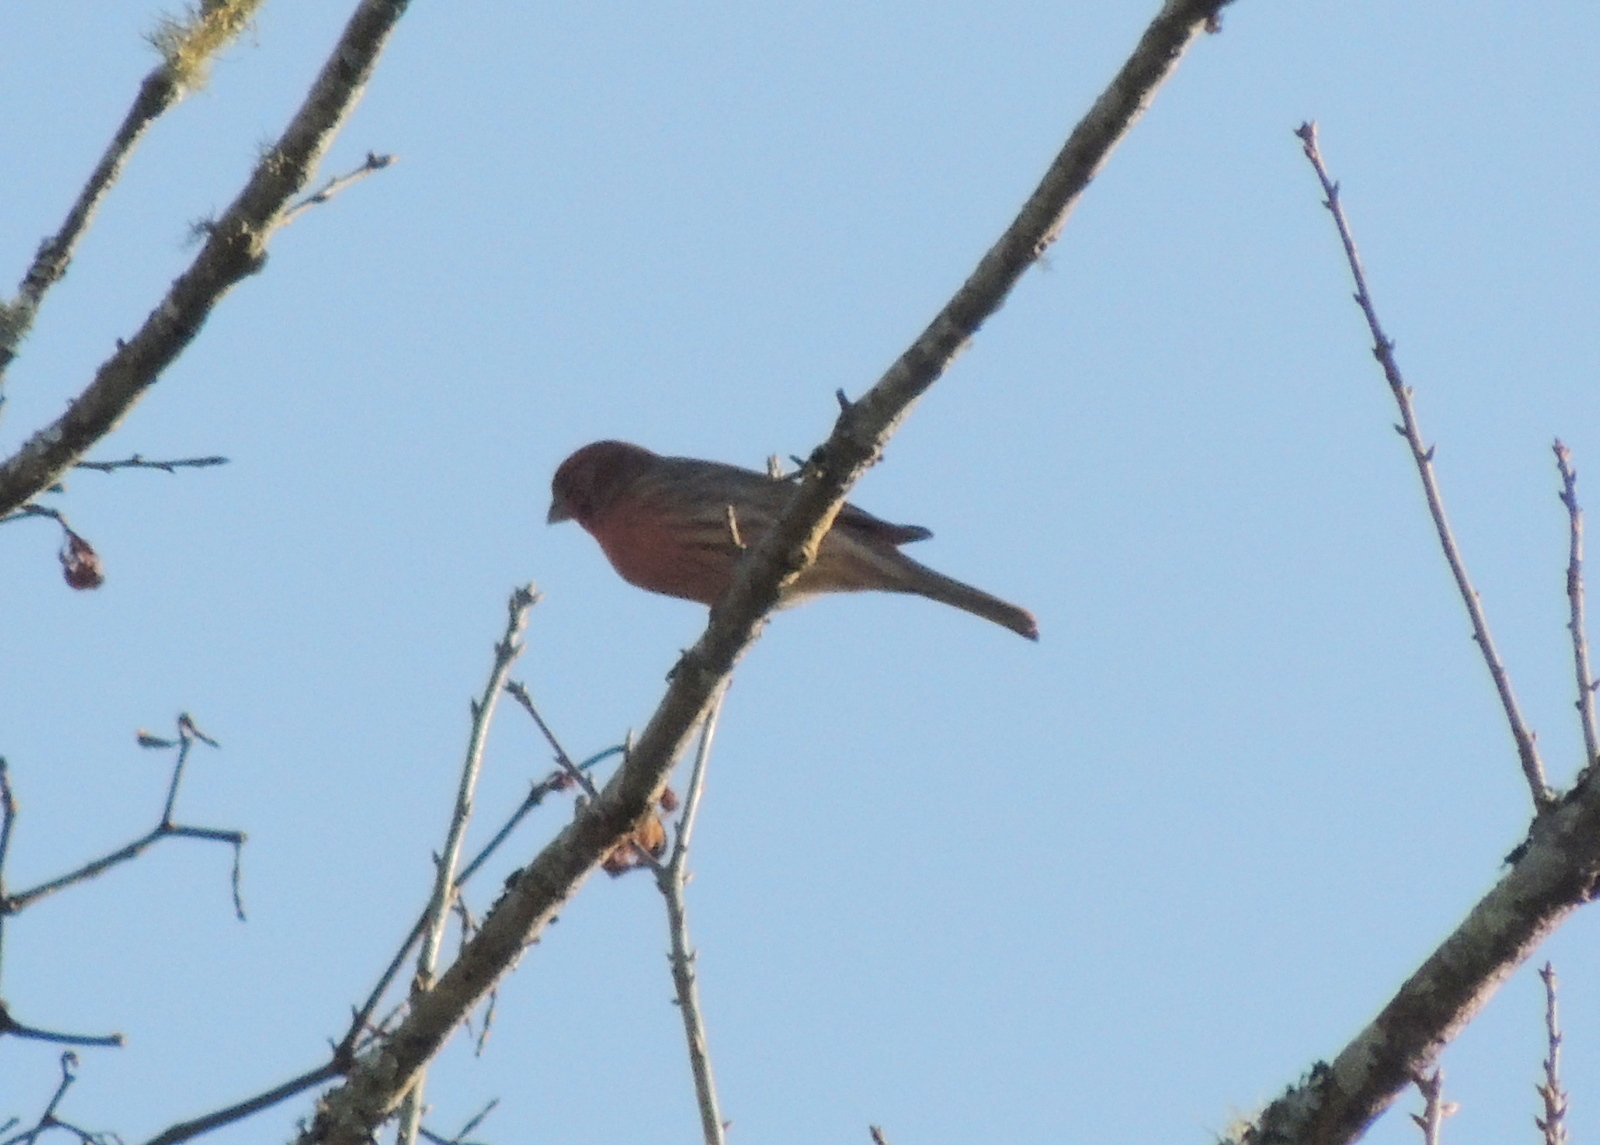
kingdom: Animalia
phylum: Chordata
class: Aves
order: Passeriformes
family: Fringillidae
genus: Haemorhous
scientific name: Haemorhous mexicanus
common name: House finch
